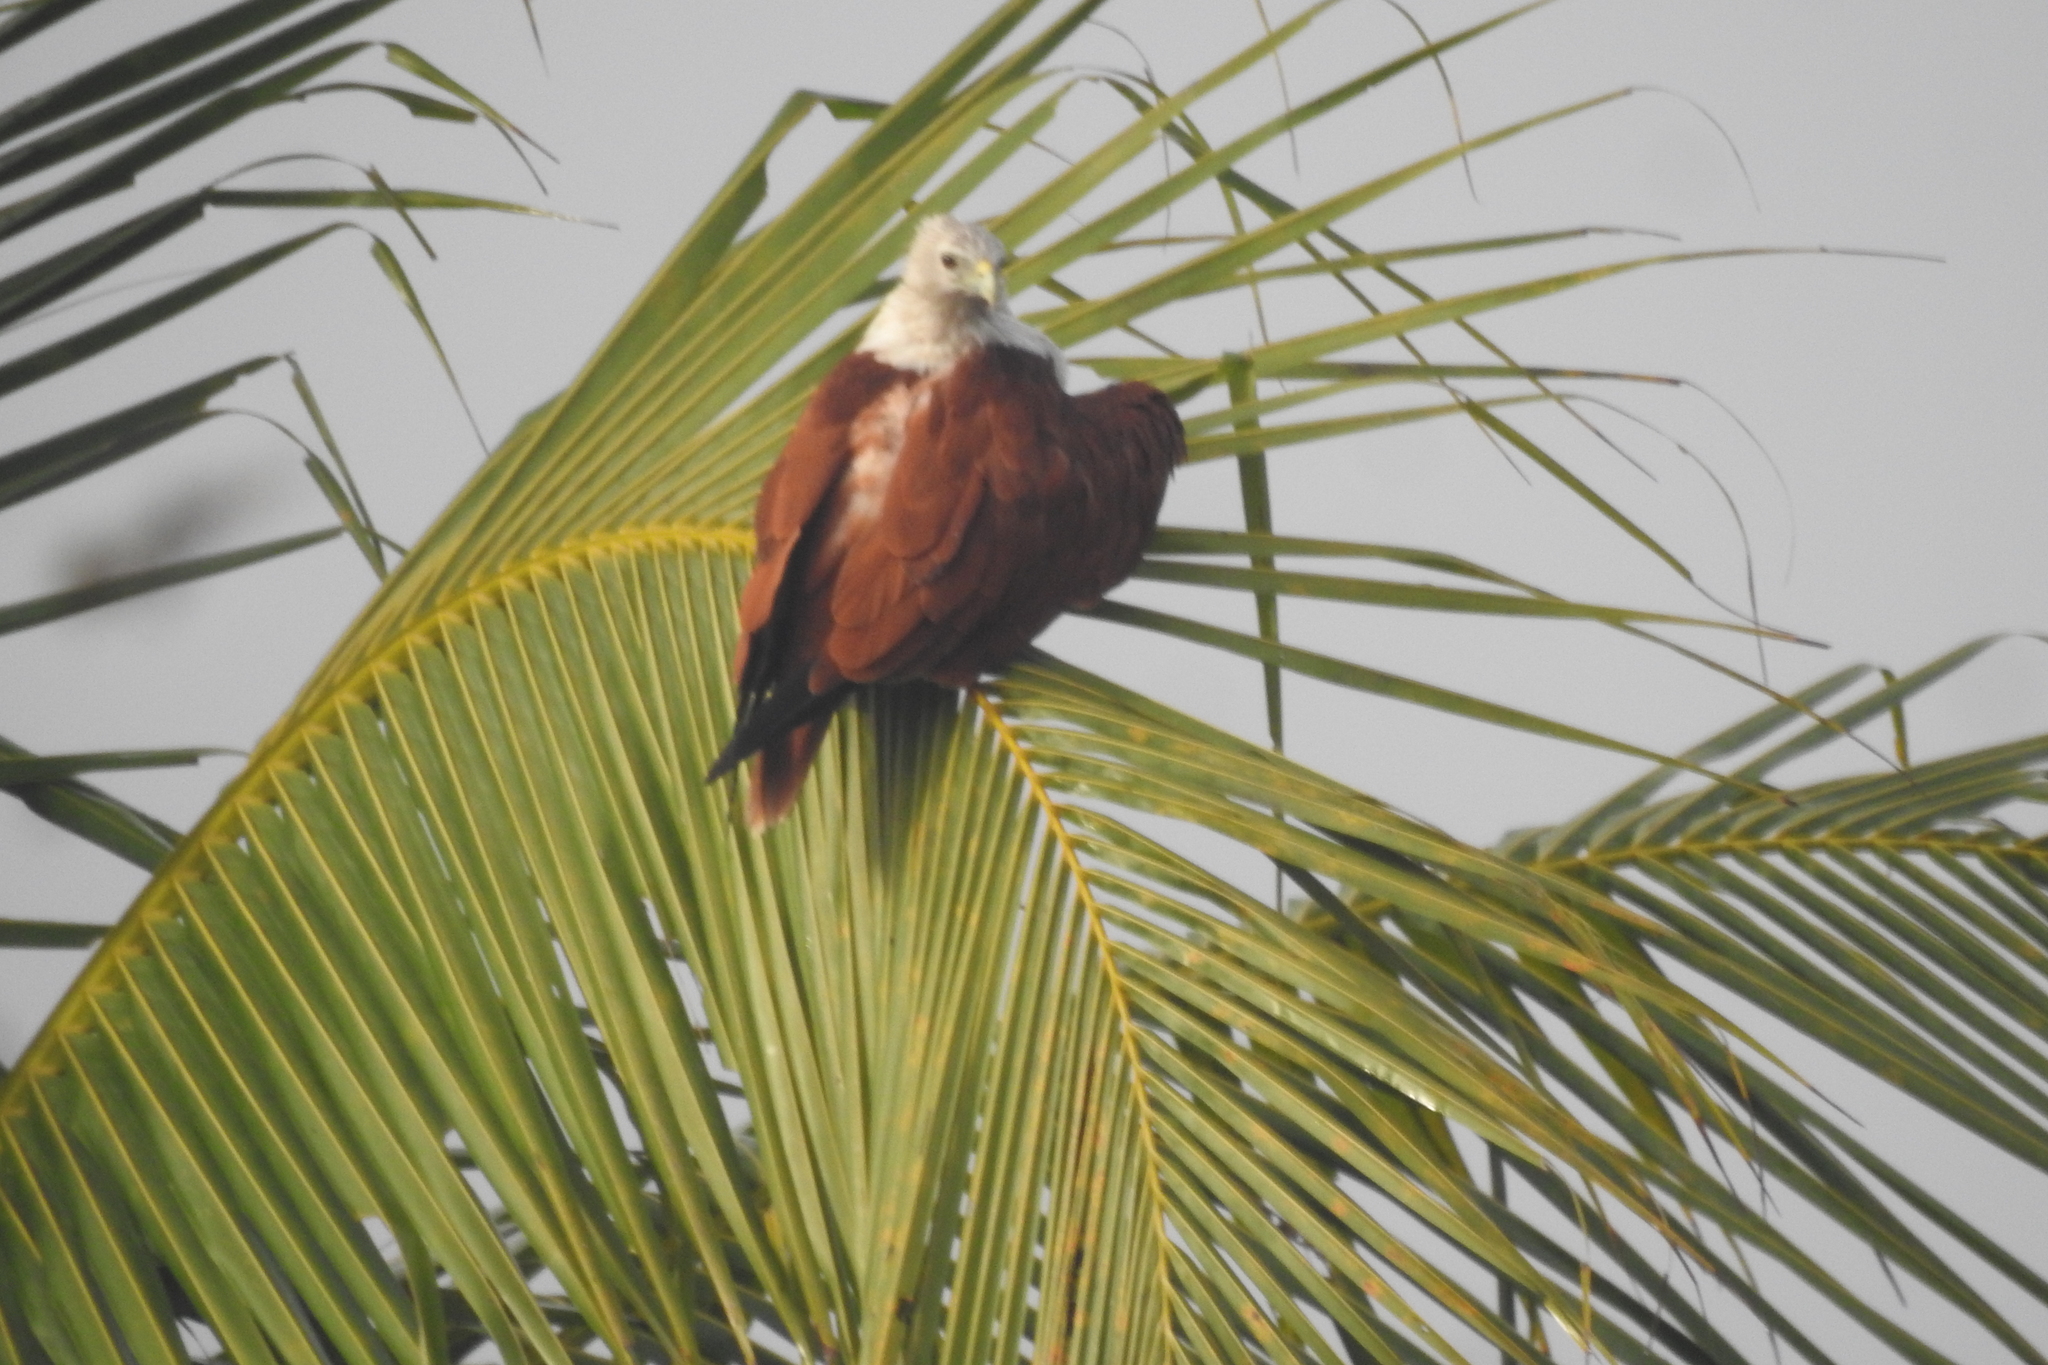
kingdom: Animalia
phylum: Chordata
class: Aves
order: Accipitriformes
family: Accipitridae
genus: Haliastur
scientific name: Haliastur indus
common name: Brahminy kite
